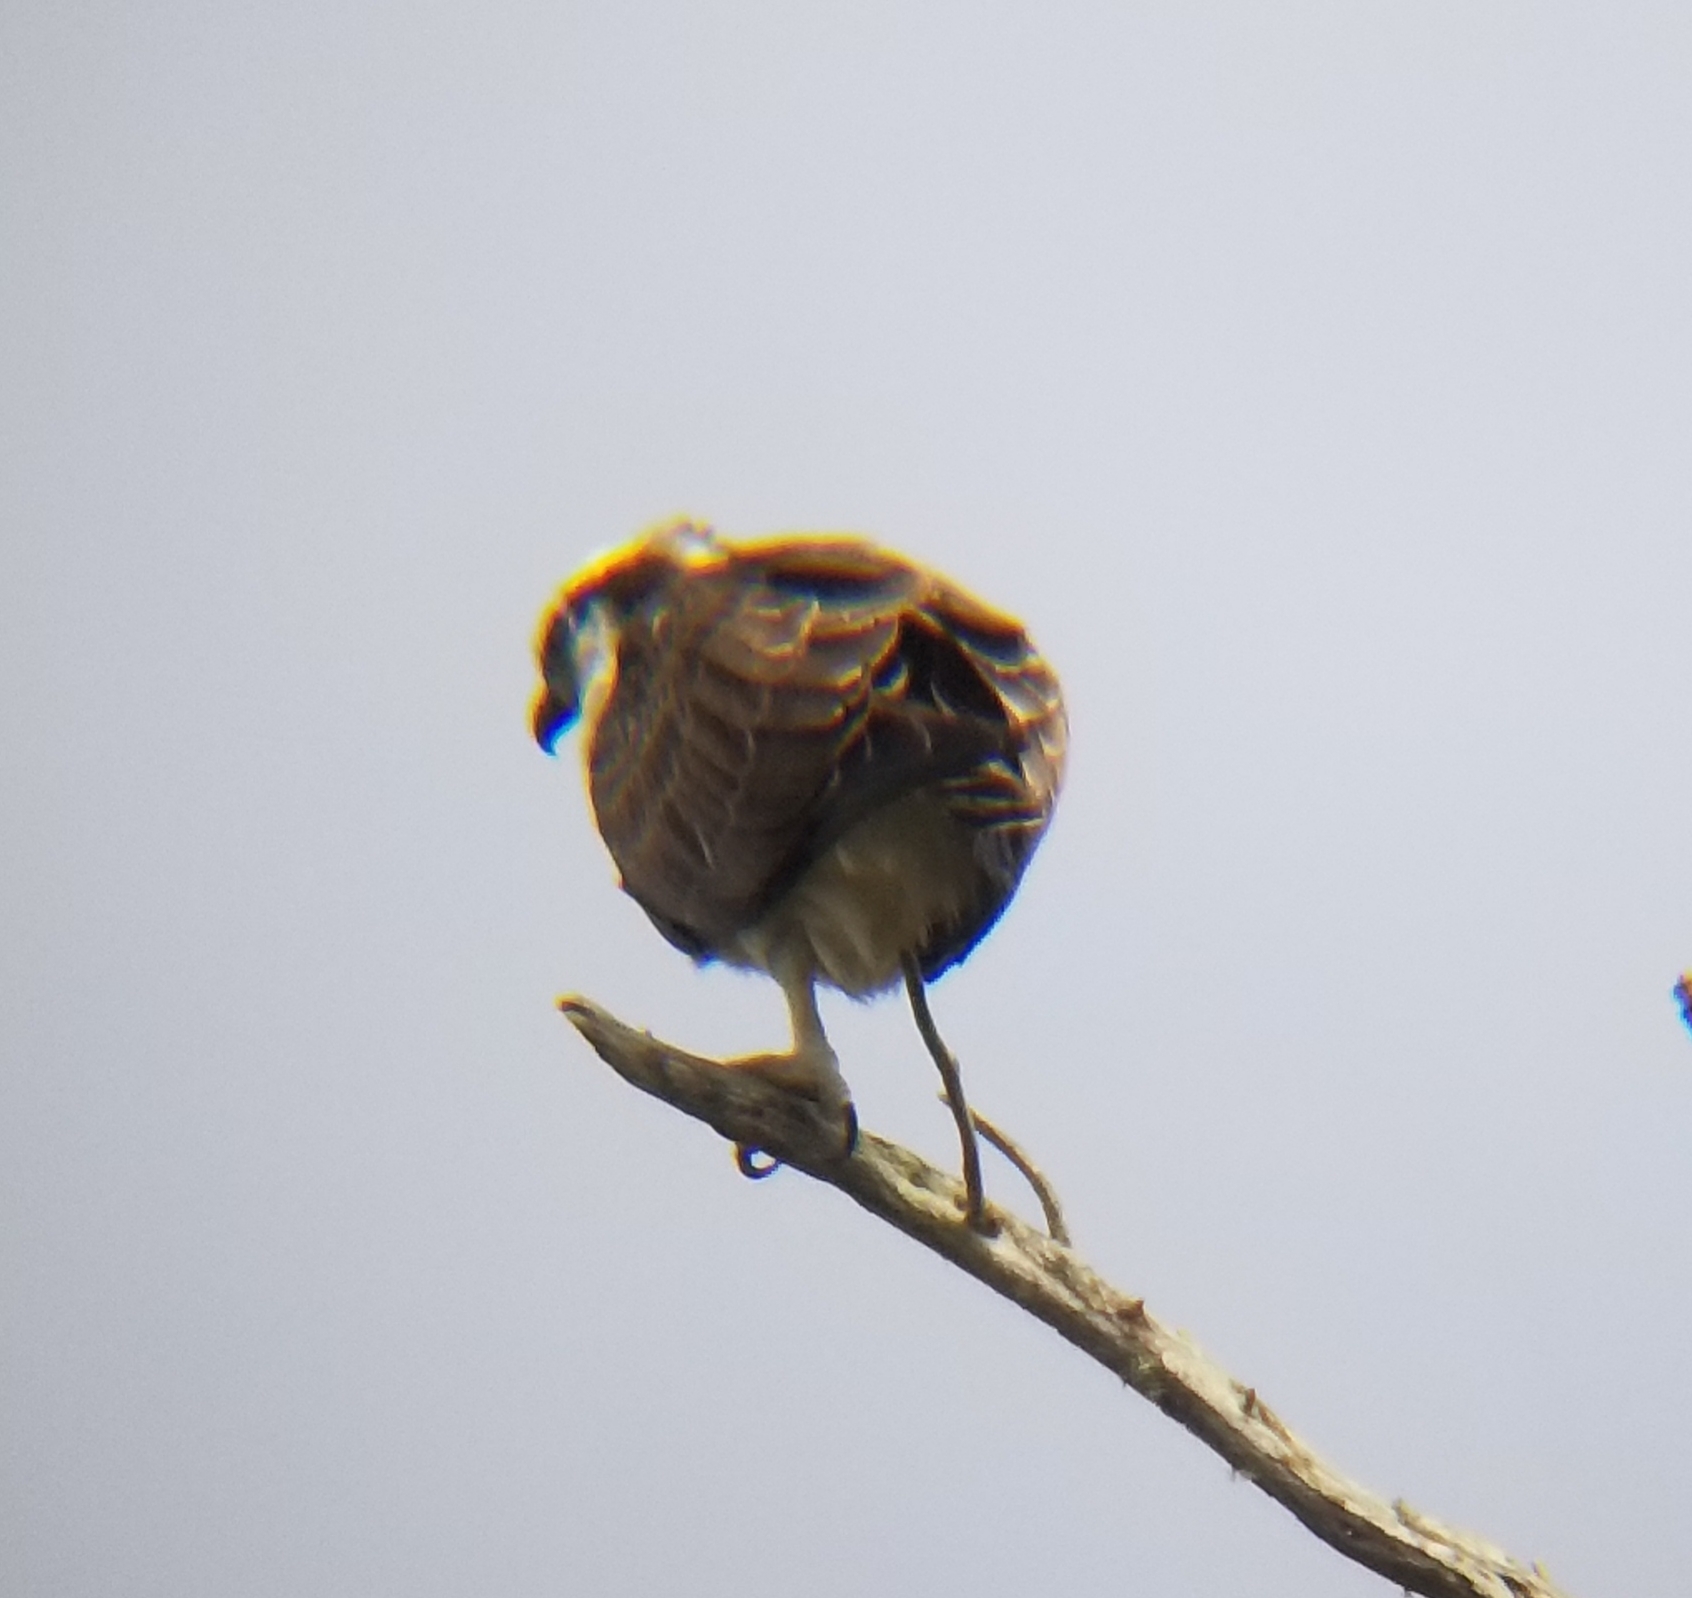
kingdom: Animalia
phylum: Chordata
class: Aves
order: Accipitriformes
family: Pandionidae
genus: Pandion
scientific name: Pandion haliaetus
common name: Osprey
